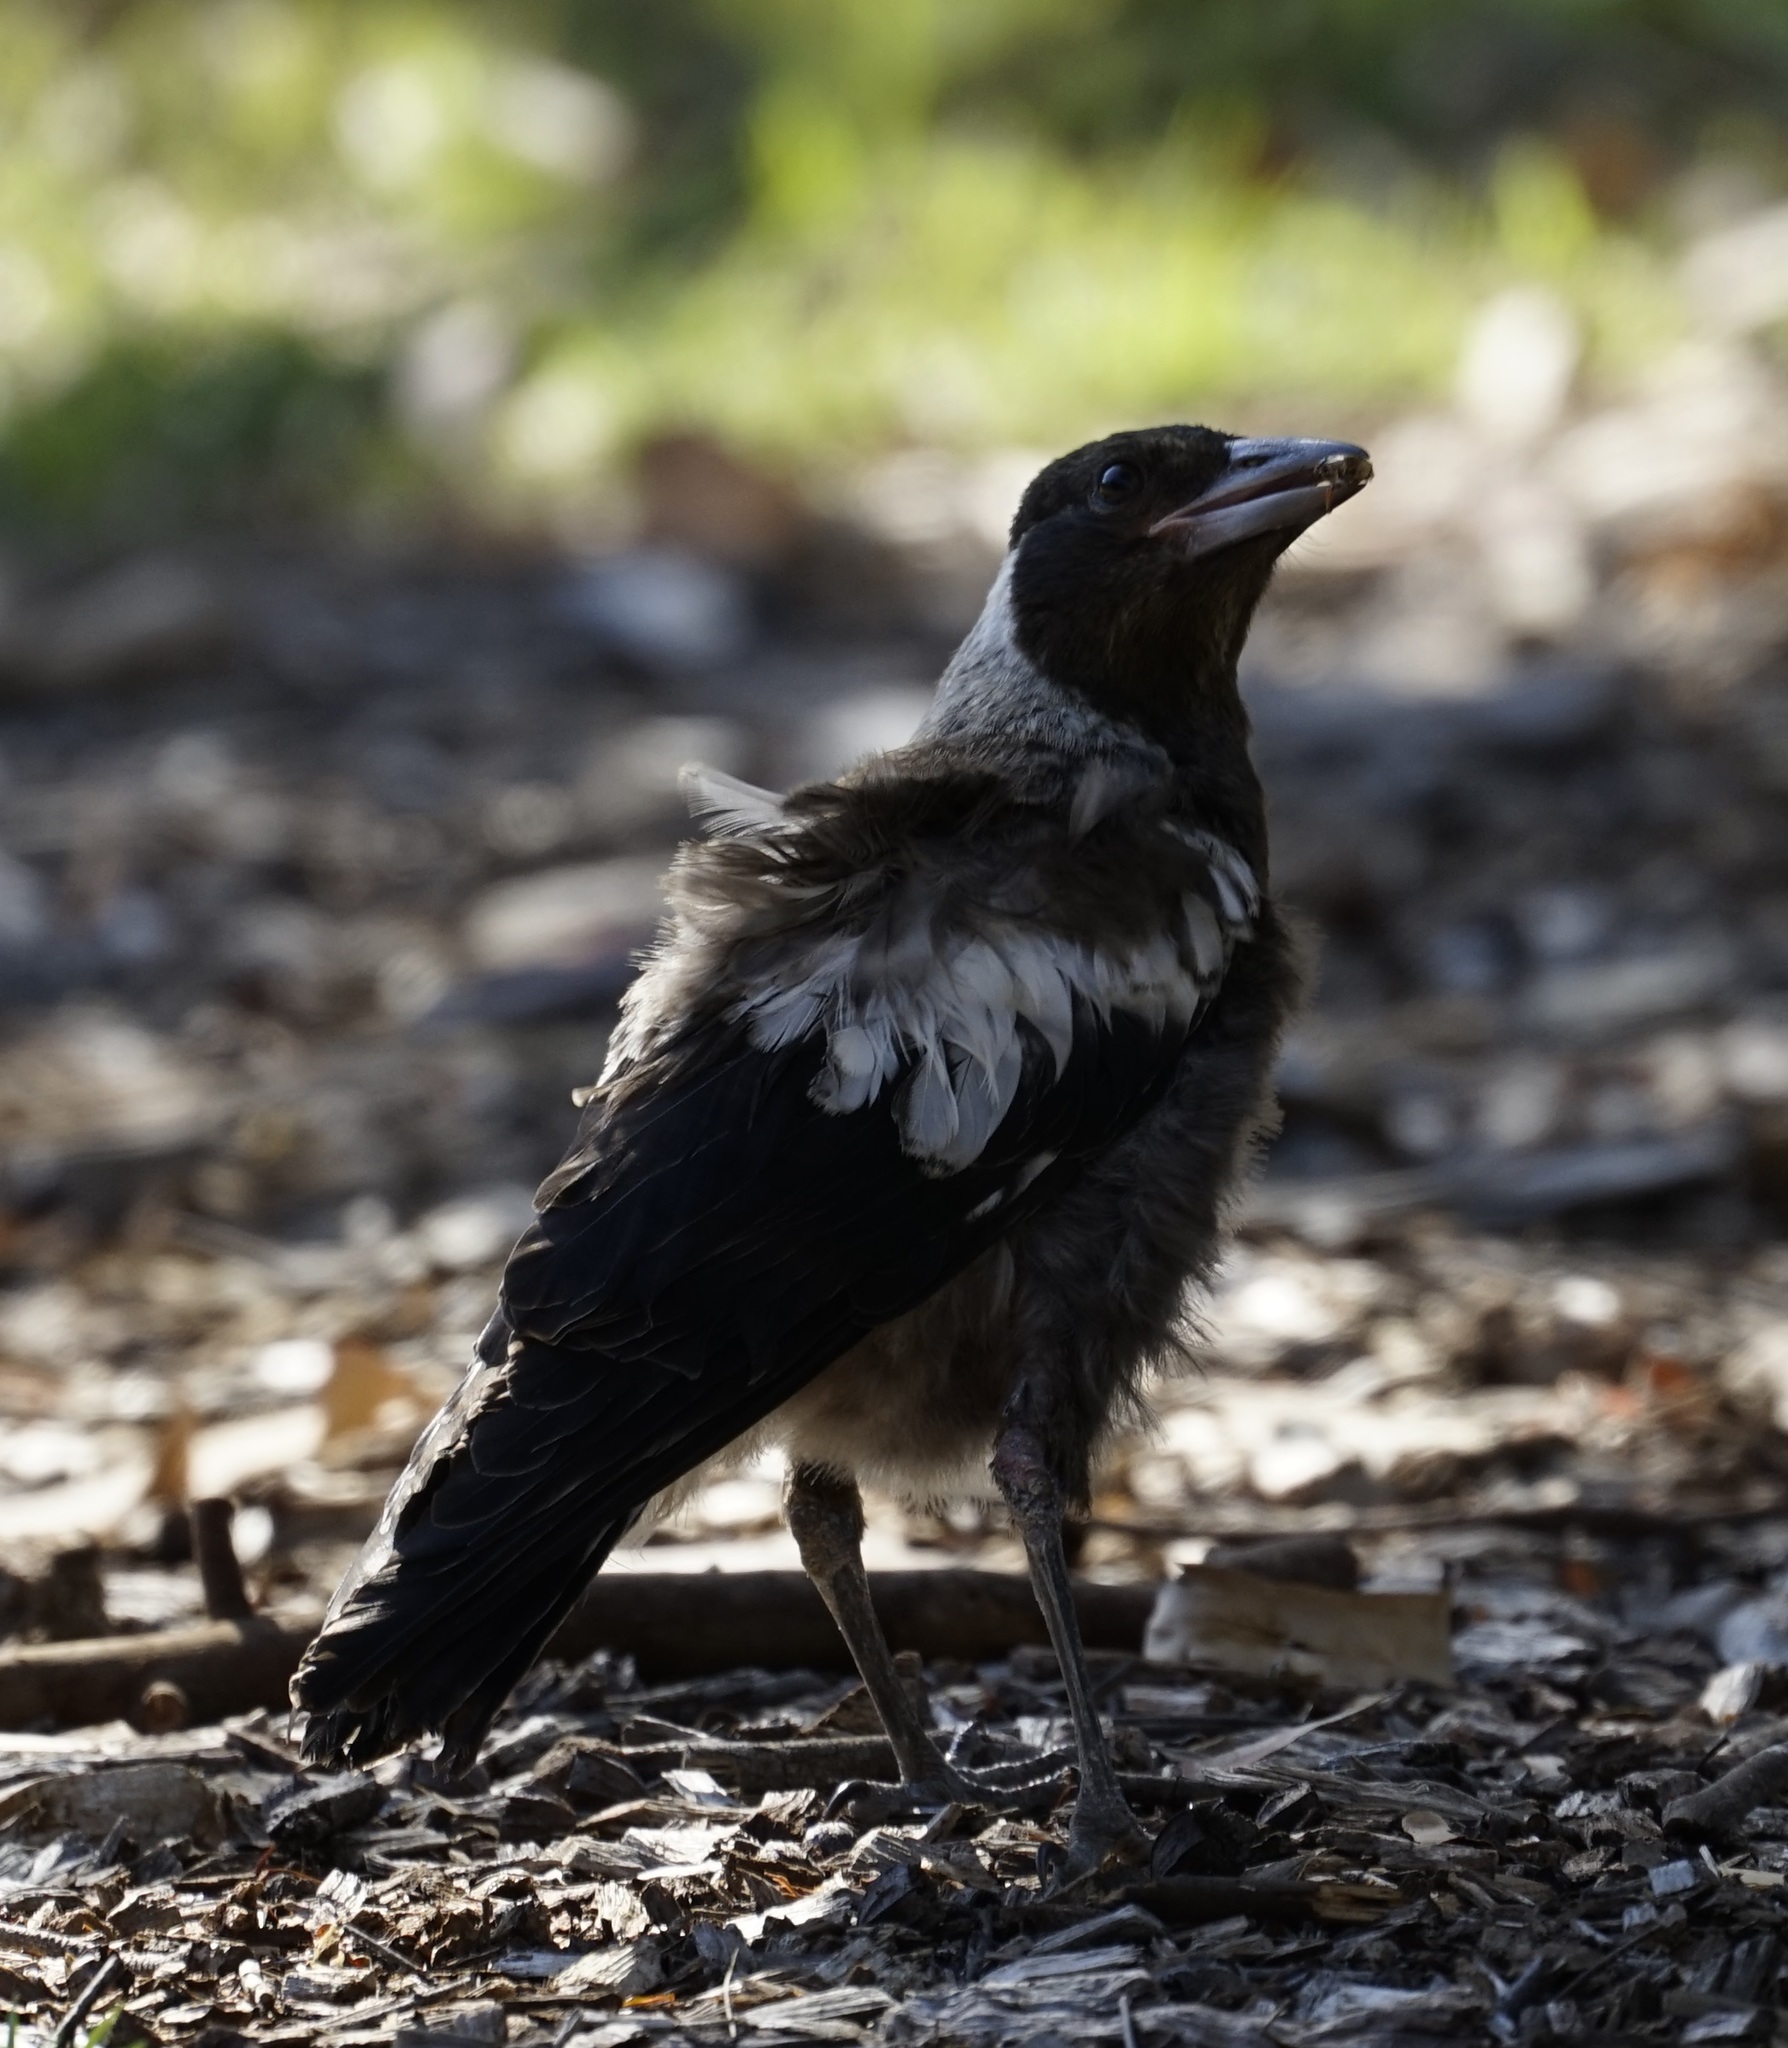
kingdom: Animalia
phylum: Chordata
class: Aves
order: Passeriformes
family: Cracticidae
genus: Gymnorhina
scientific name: Gymnorhina tibicen
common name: Australian magpie
